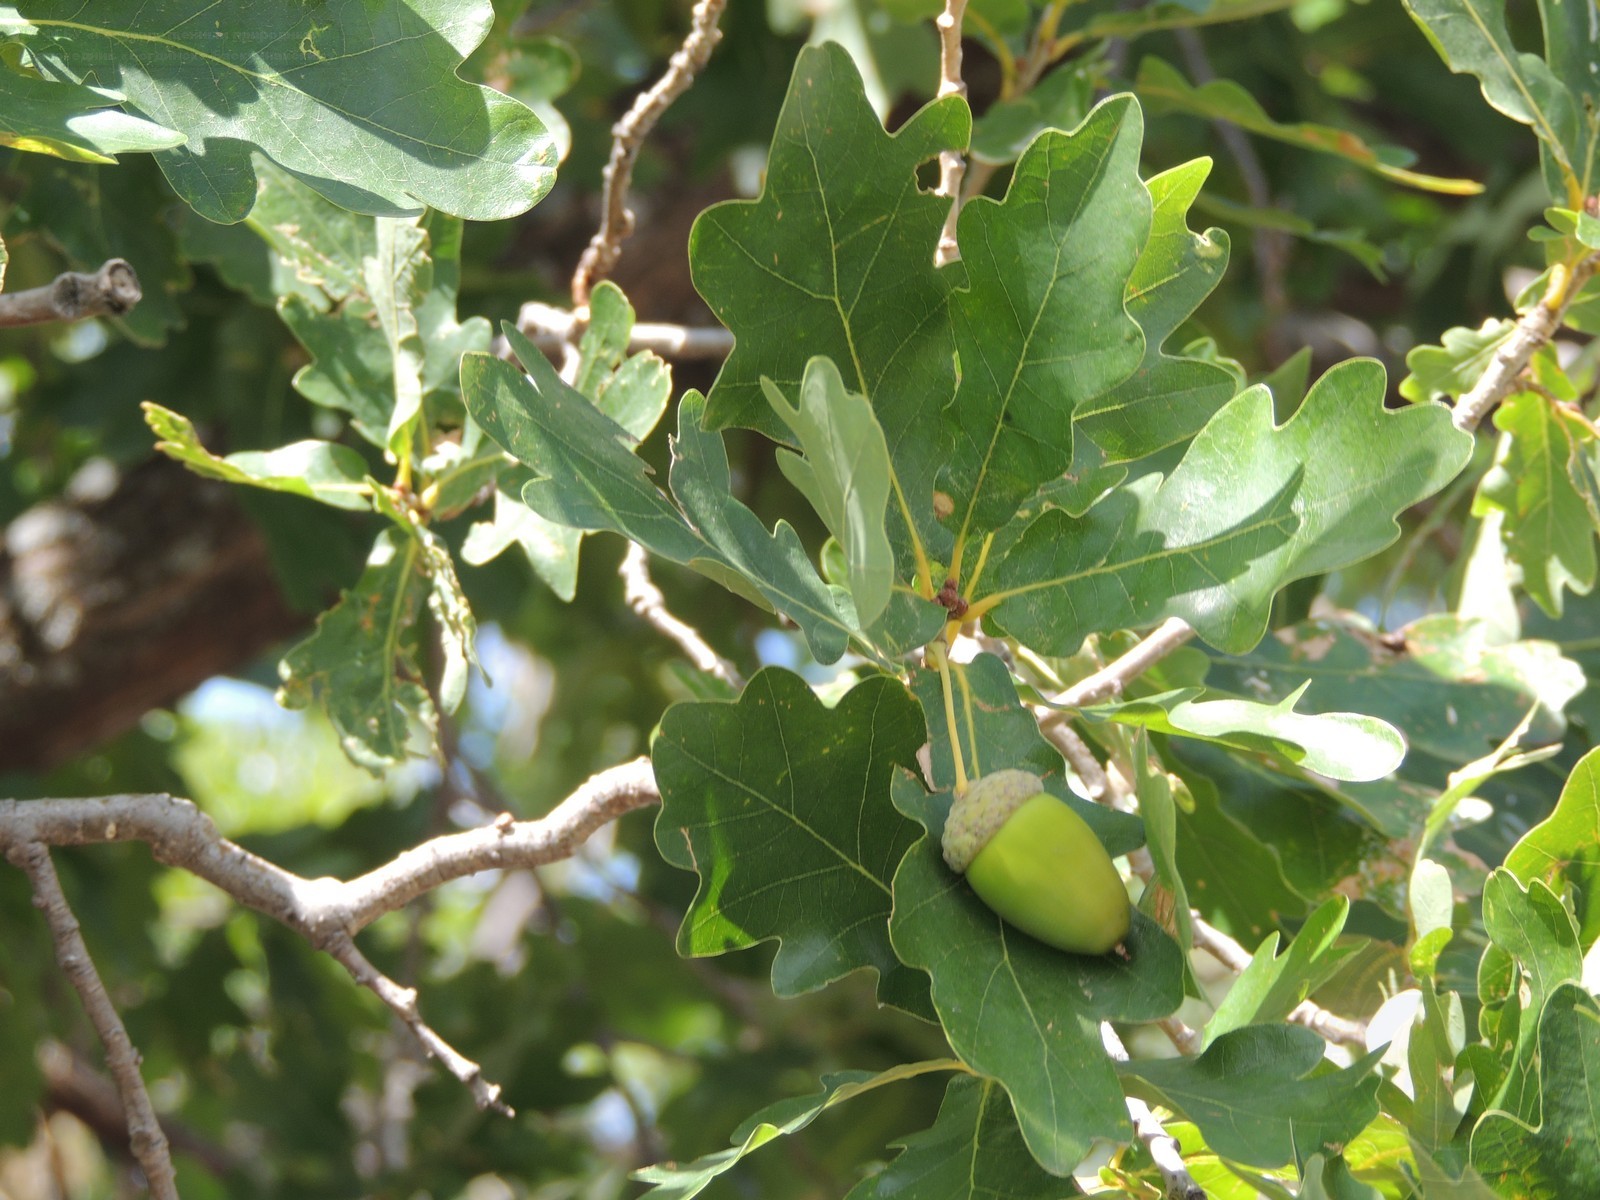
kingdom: Plantae
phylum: Tracheophyta
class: Magnoliopsida
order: Fagales
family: Fagaceae
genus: Quercus
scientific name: Quercus robur
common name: Pedunculate oak
